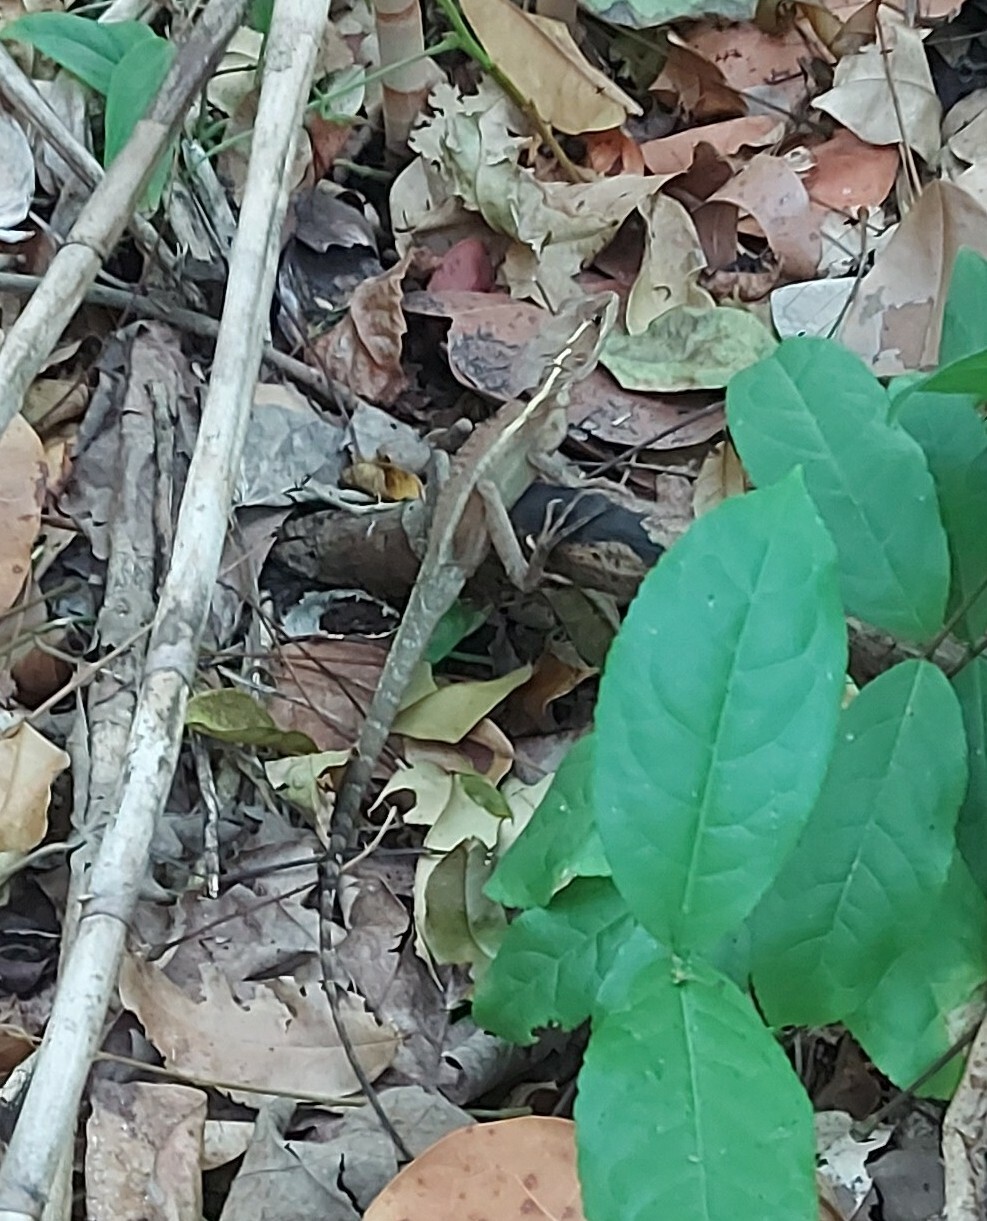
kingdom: Animalia
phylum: Chordata
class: Squamata
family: Corytophanidae
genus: Basiliscus
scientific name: Basiliscus vittatus
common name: Brown basilisk
